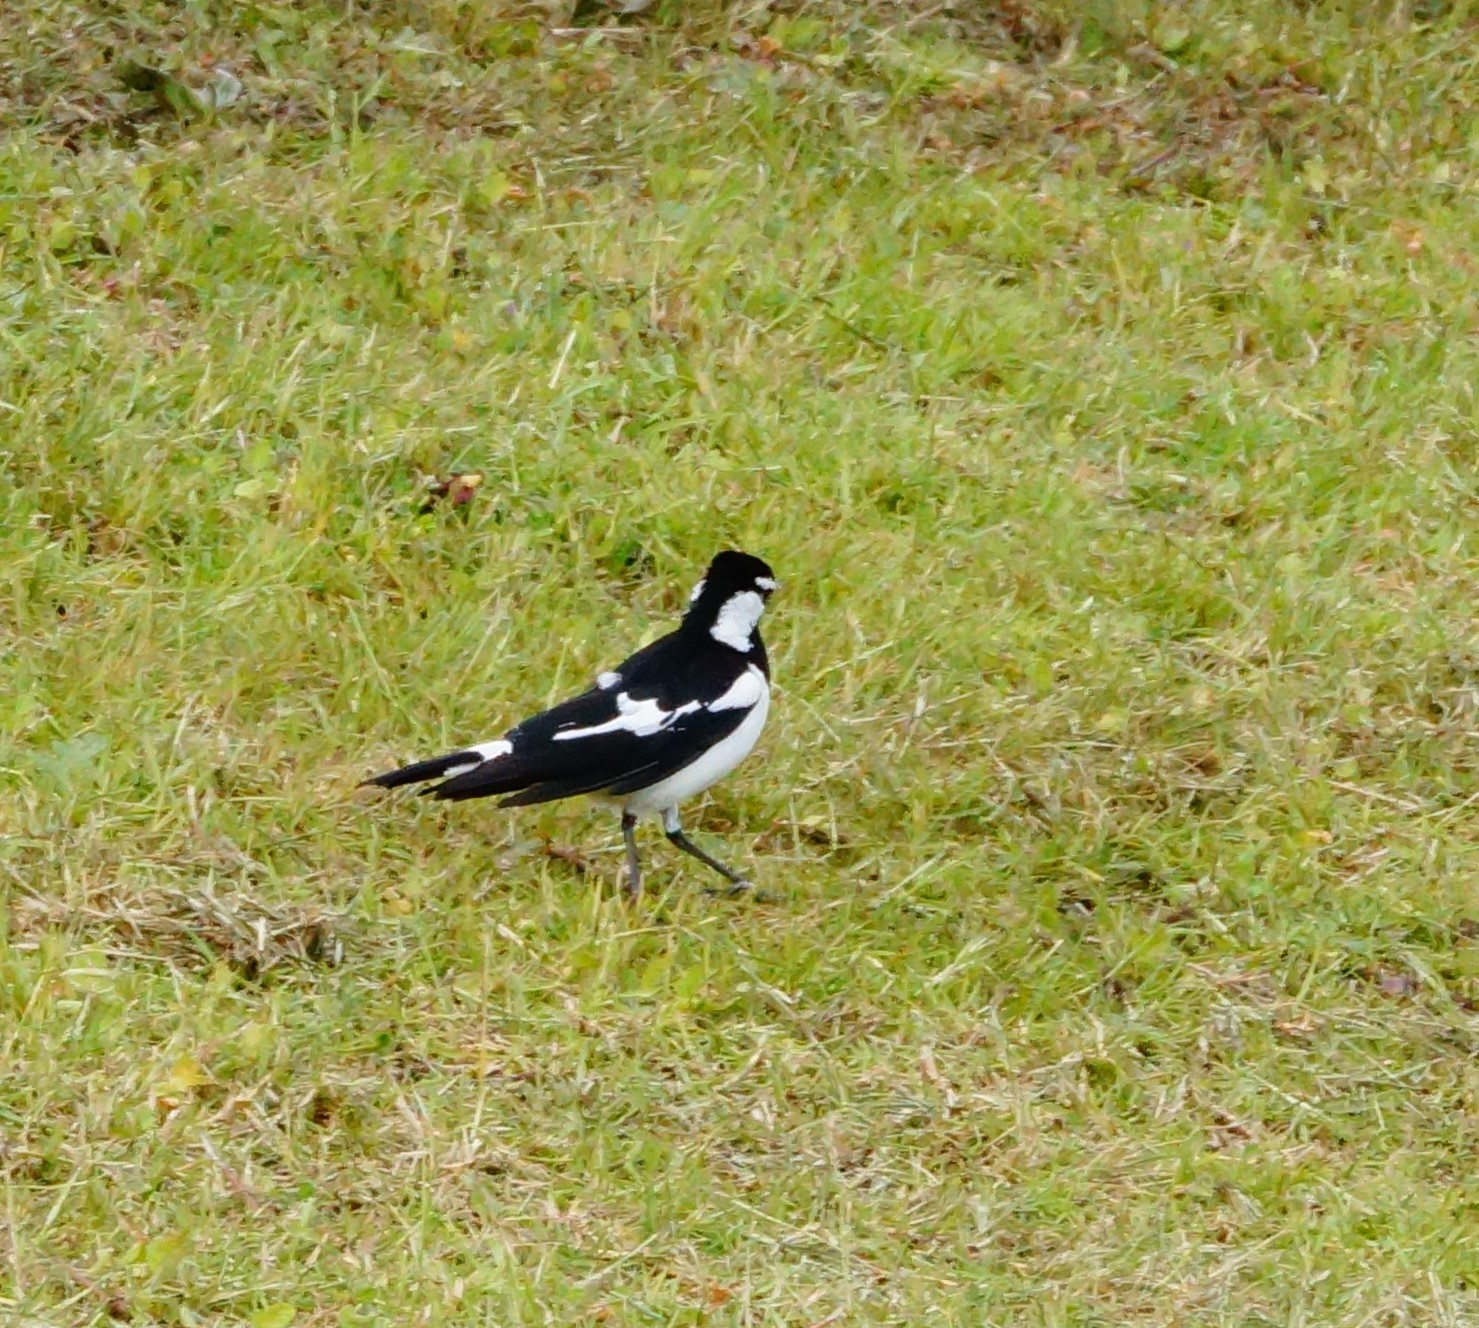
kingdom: Animalia
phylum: Chordata
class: Aves
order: Passeriformes
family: Monarchidae
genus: Grallina
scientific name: Grallina cyanoleuca
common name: Magpie-lark
